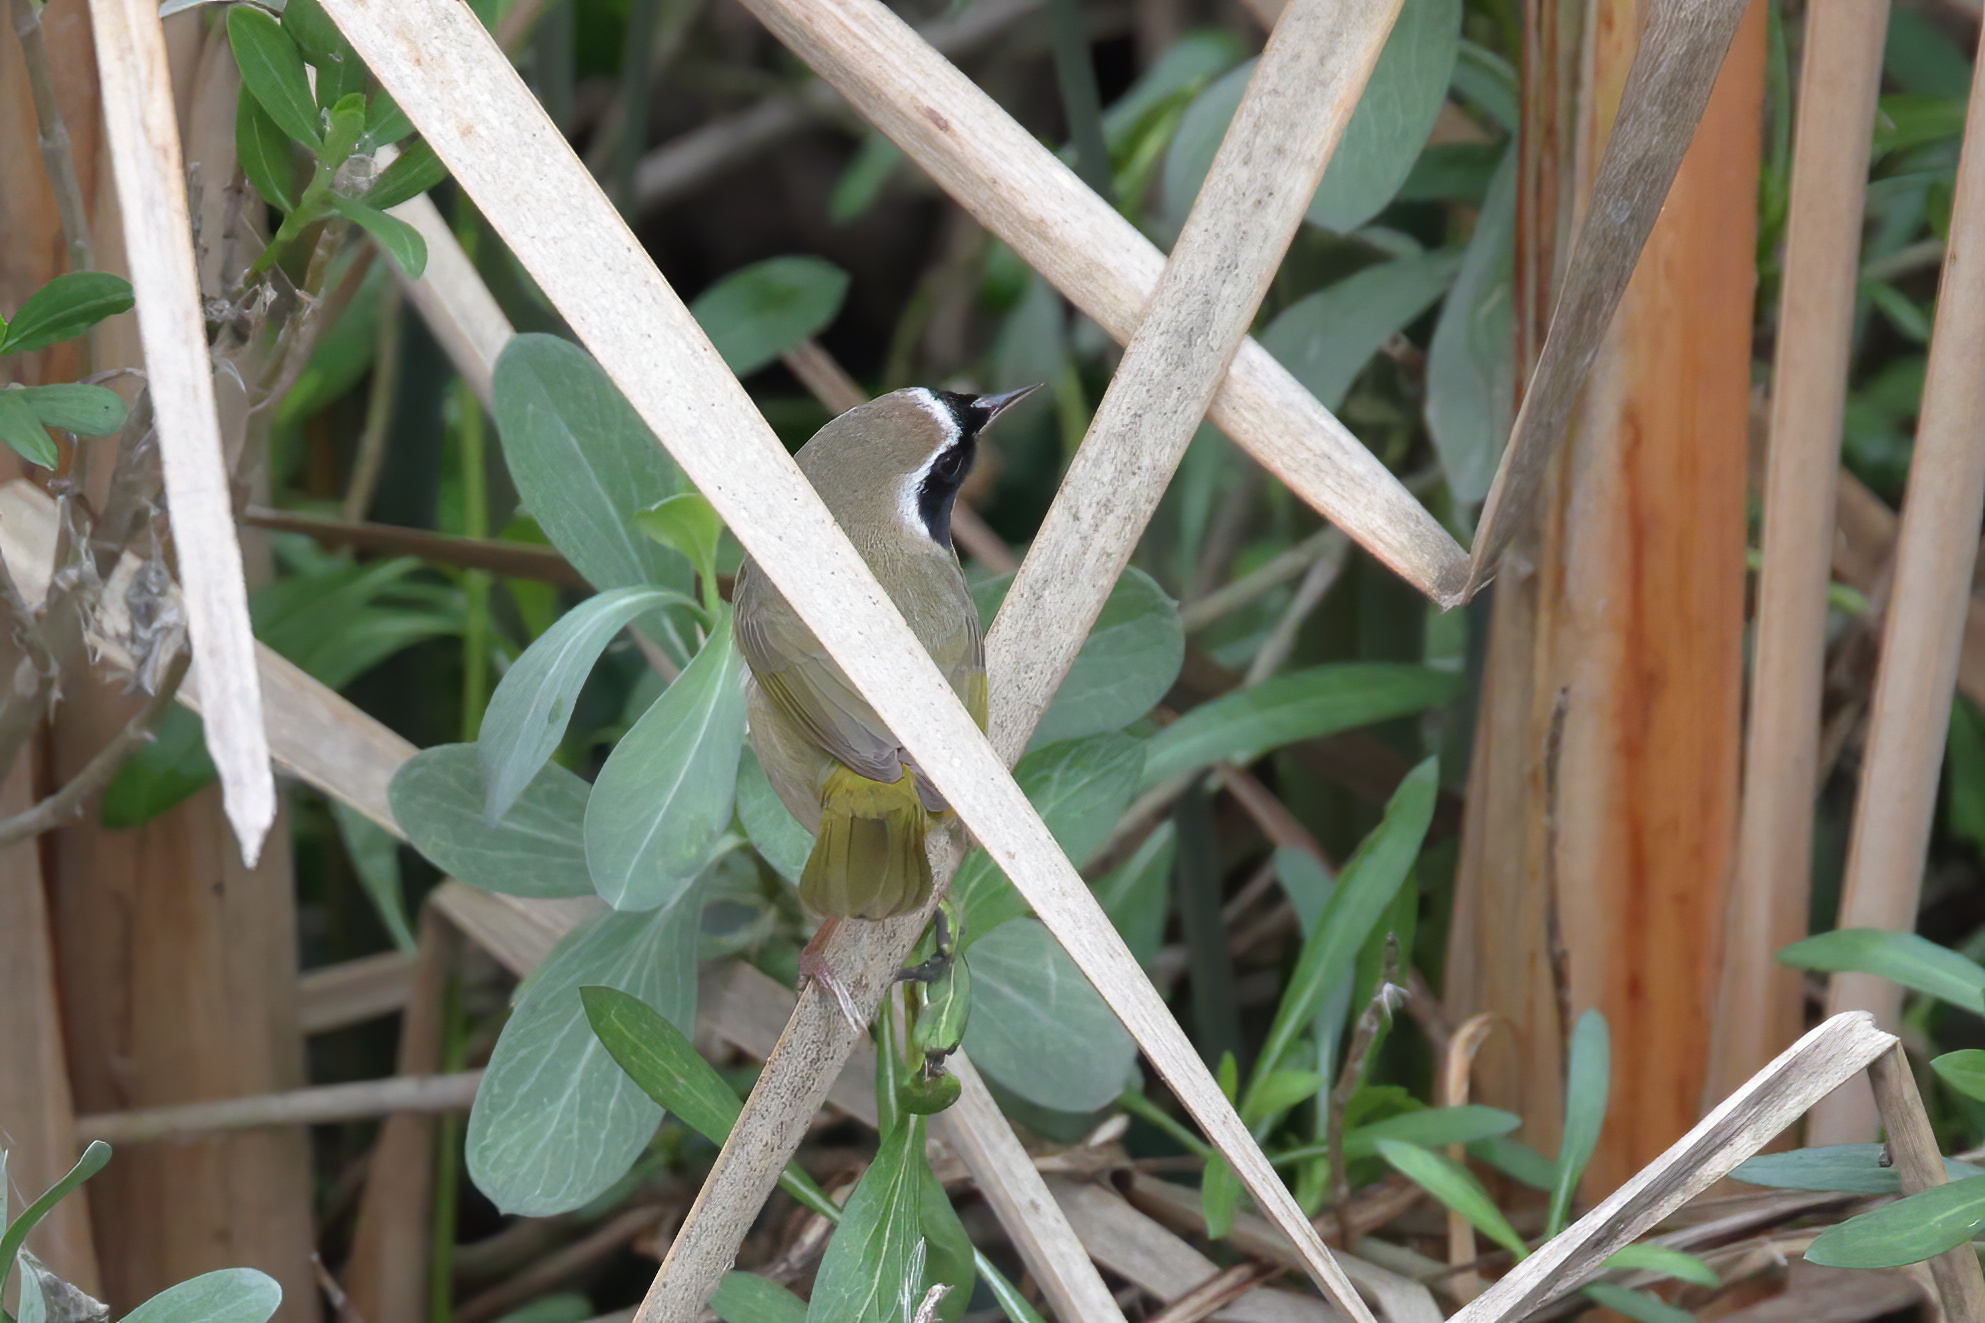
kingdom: Animalia
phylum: Chordata
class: Aves
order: Passeriformes
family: Parulidae
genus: Geothlypis
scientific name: Geothlypis trichas
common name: Common yellowthroat
